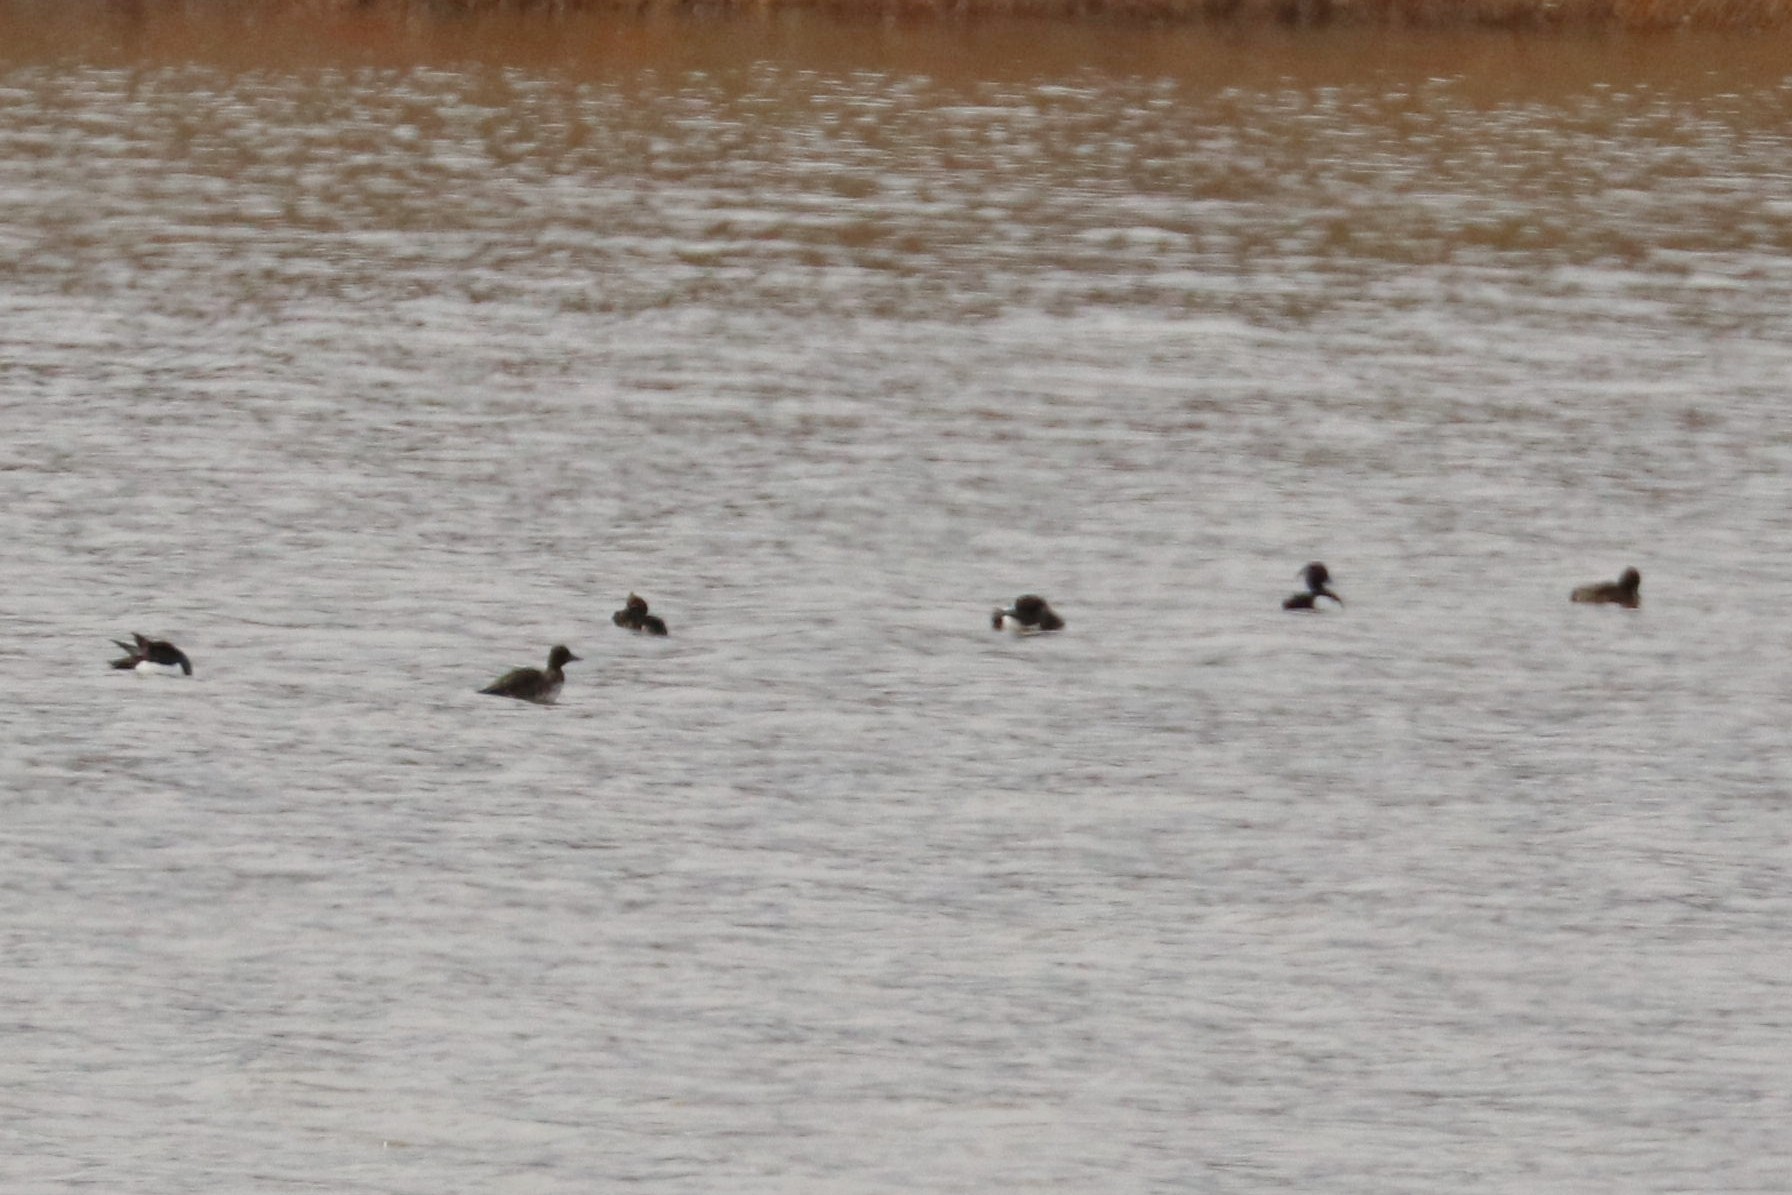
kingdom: Animalia
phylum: Chordata
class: Aves
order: Anseriformes
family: Anatidae
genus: Aythya
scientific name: Aythya fuligula
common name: Tufted duck
